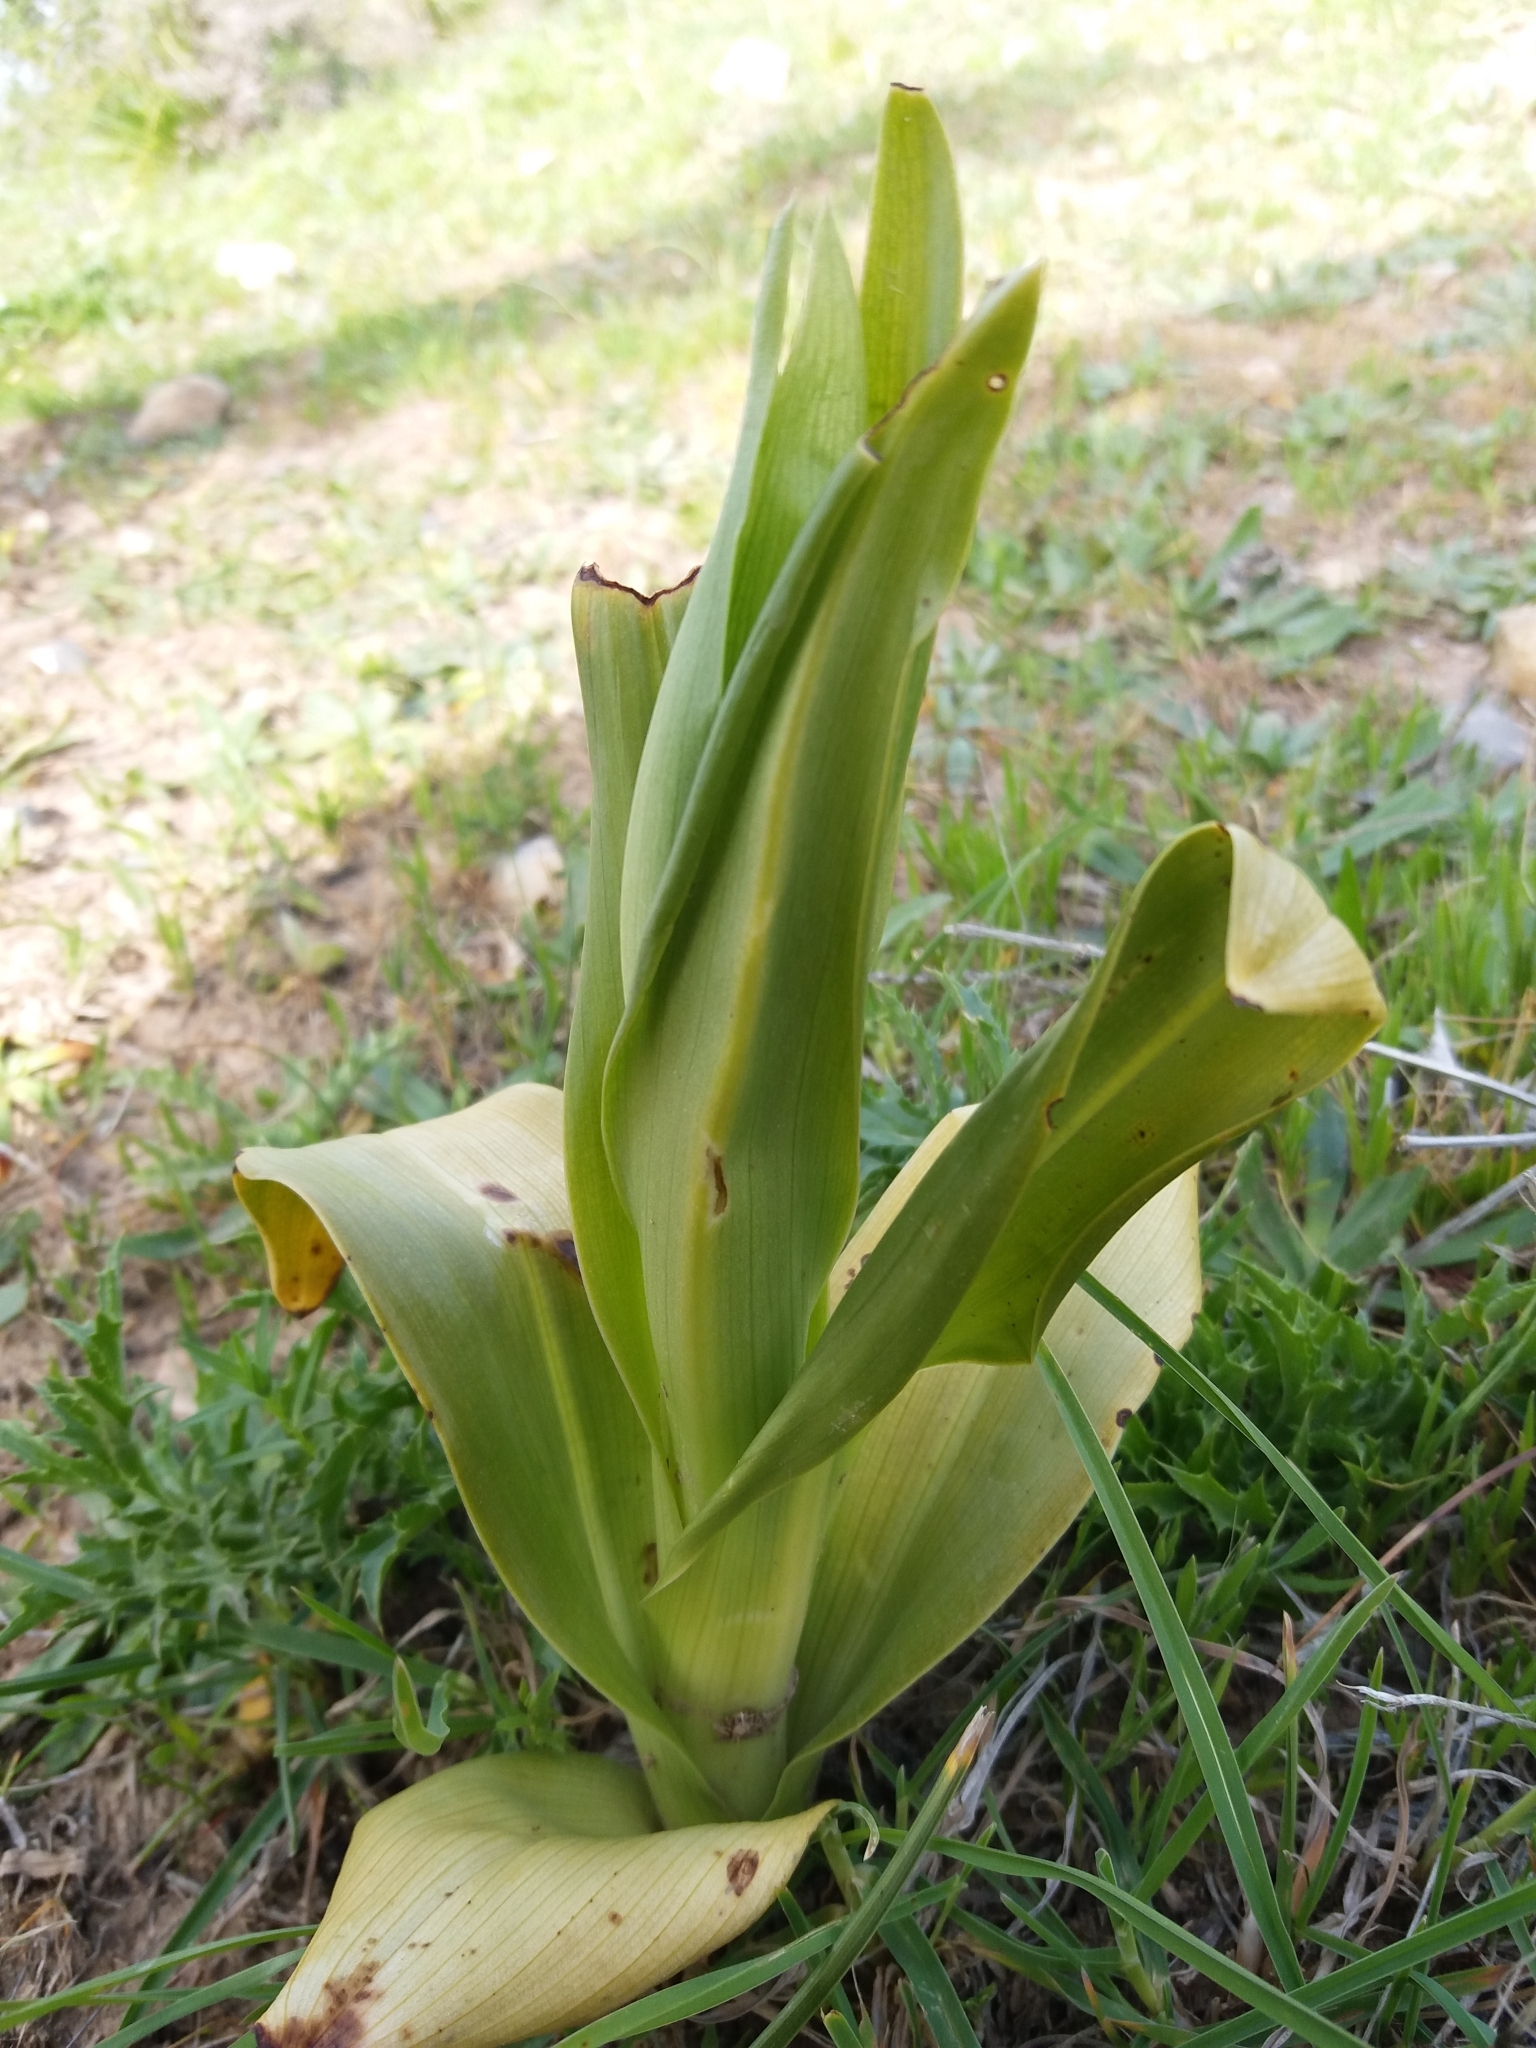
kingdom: Plantae
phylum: Tracheophyta
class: Liliopsida
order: Asparagales
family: Orchidaceae
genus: Himantoglossum
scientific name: Himantoglossum hircinum
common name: Lizard orchid
